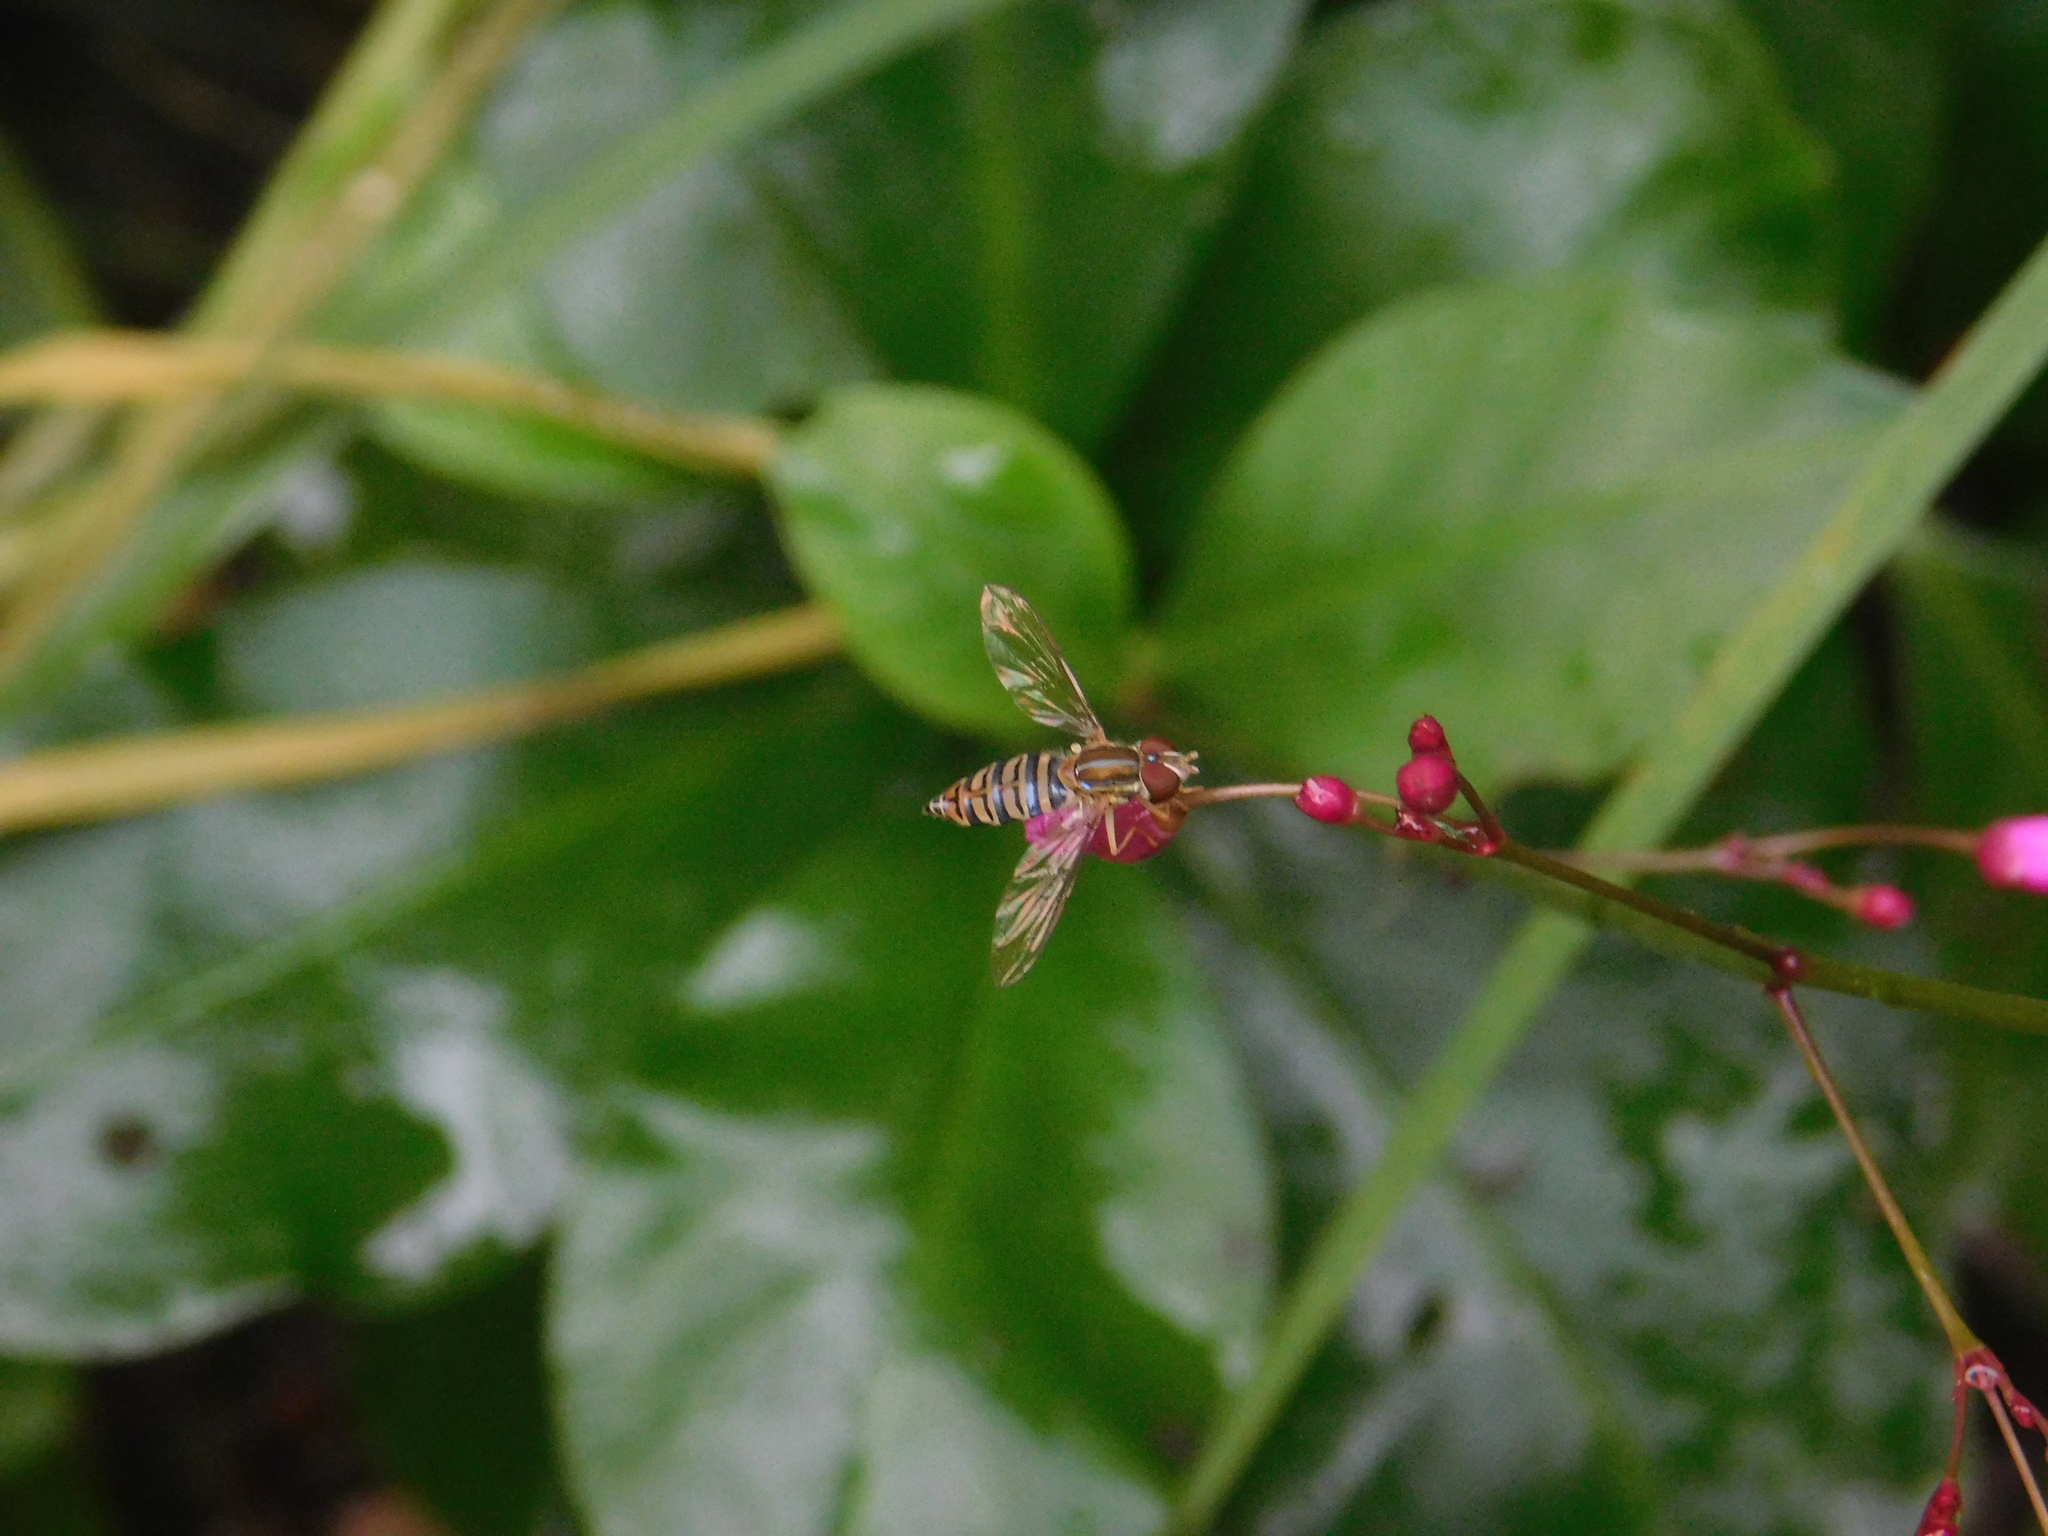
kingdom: Animalia
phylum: Arthropoda
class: Insecta
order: Diptera
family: Syrphidae
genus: Toxomerus
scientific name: Toxomerus politus
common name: Maize calligrapher
